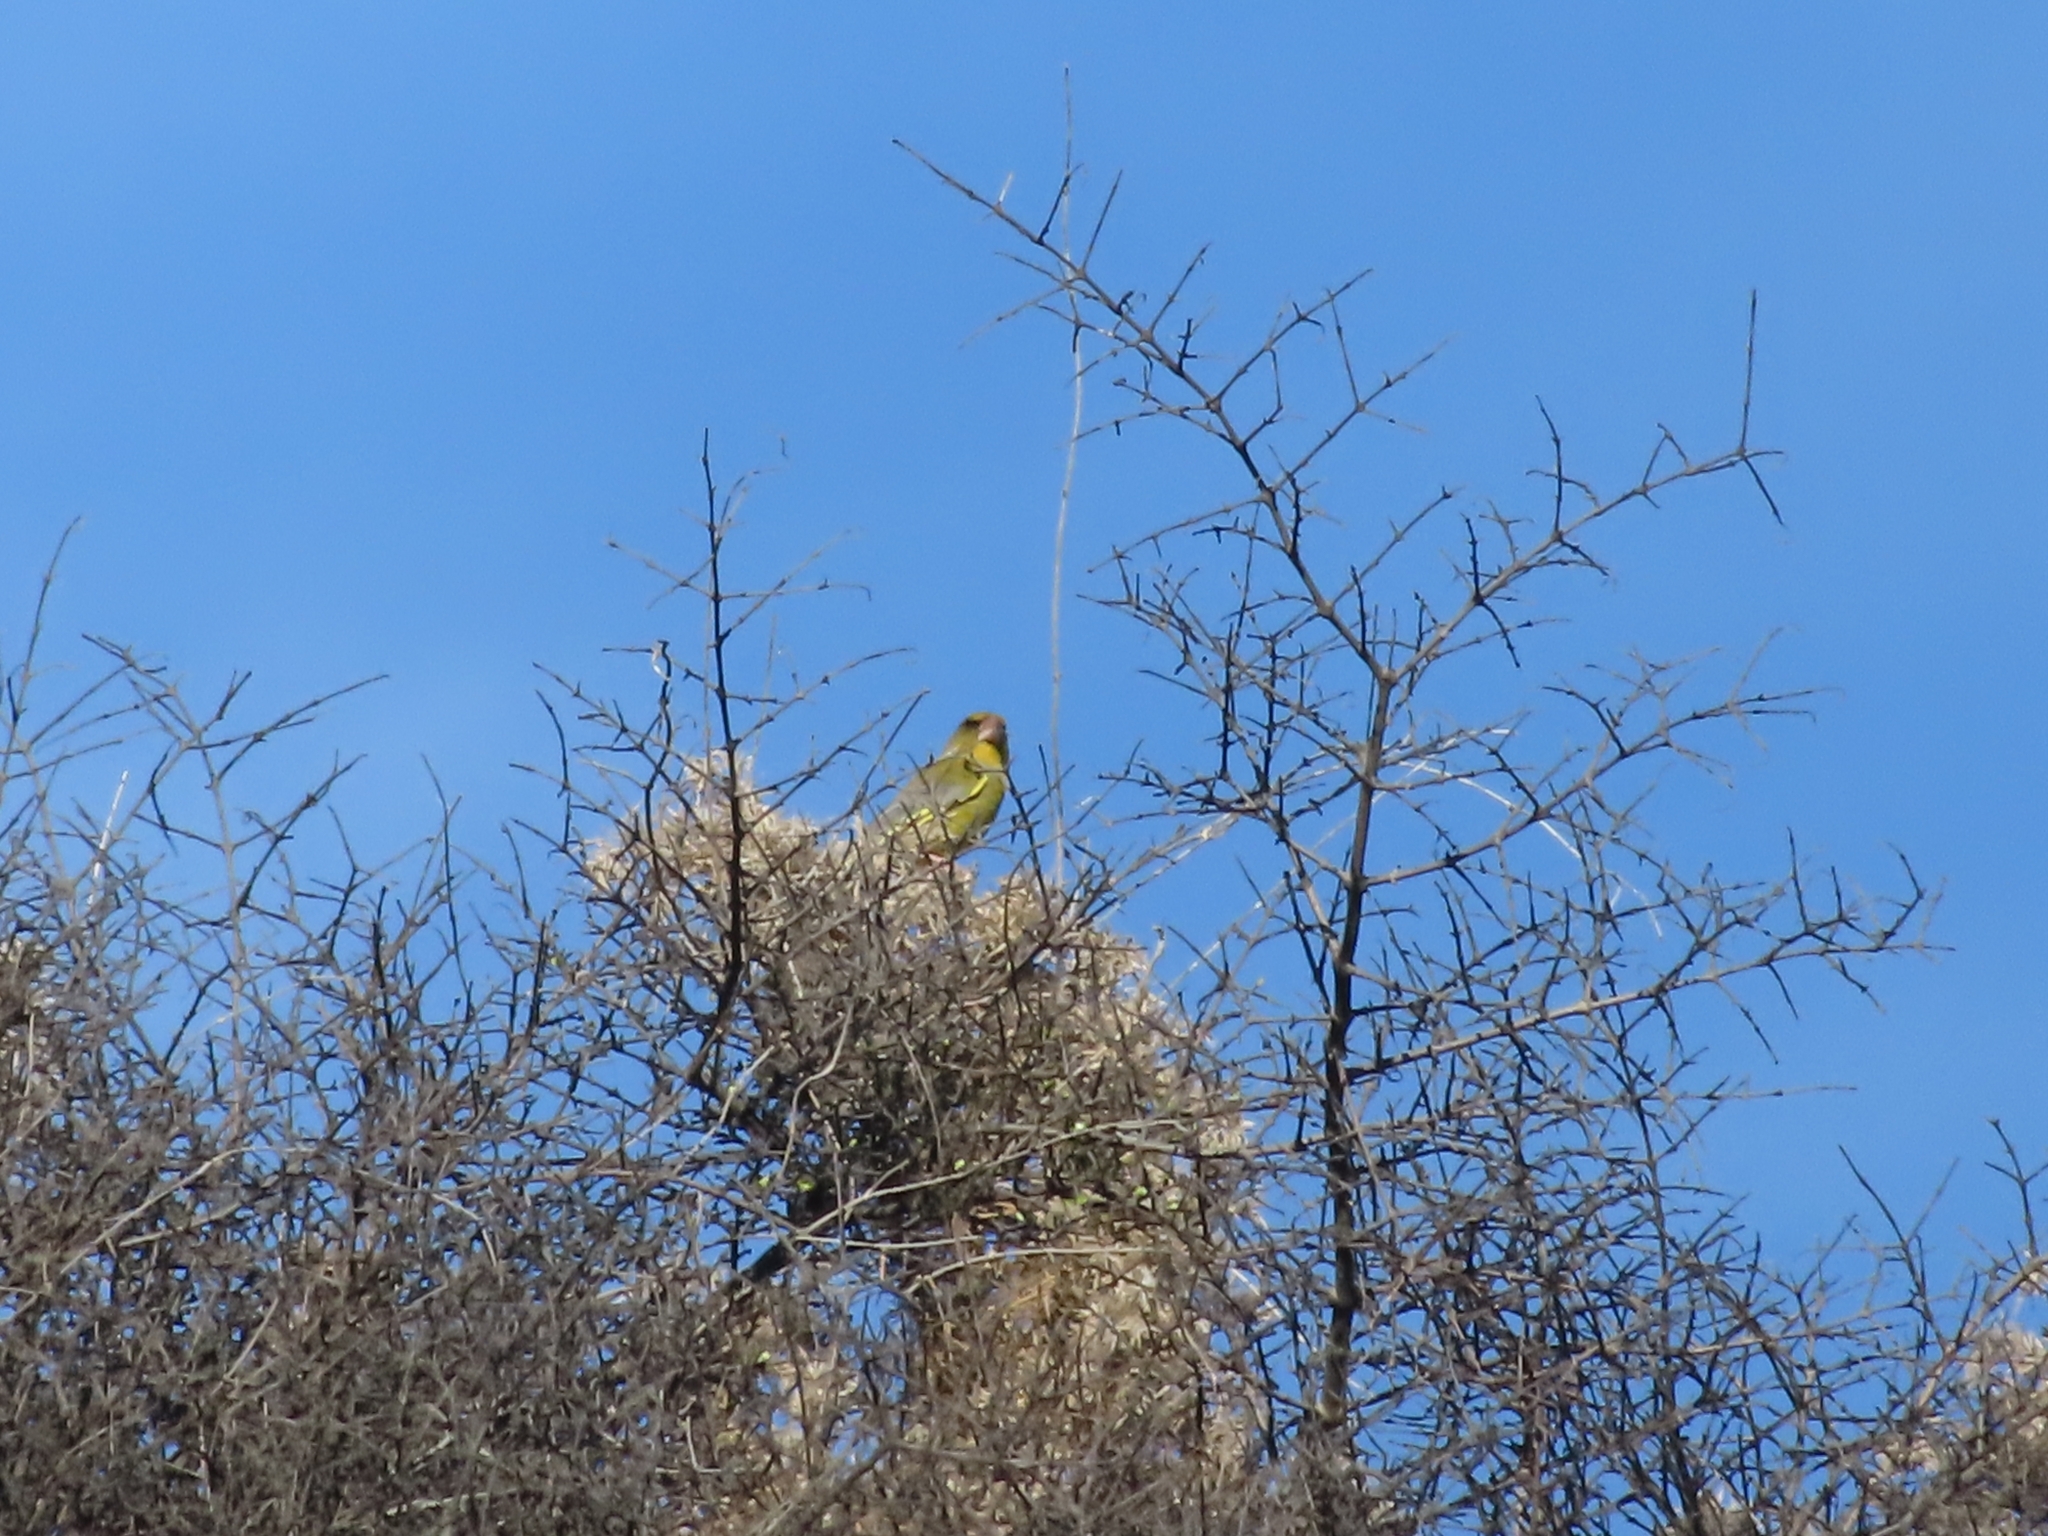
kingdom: Animalia
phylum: Chordata
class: Aves
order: Passeriformes
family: Fringillidae
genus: Carduelis
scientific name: Carduelis carduelis
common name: European goldfinch
